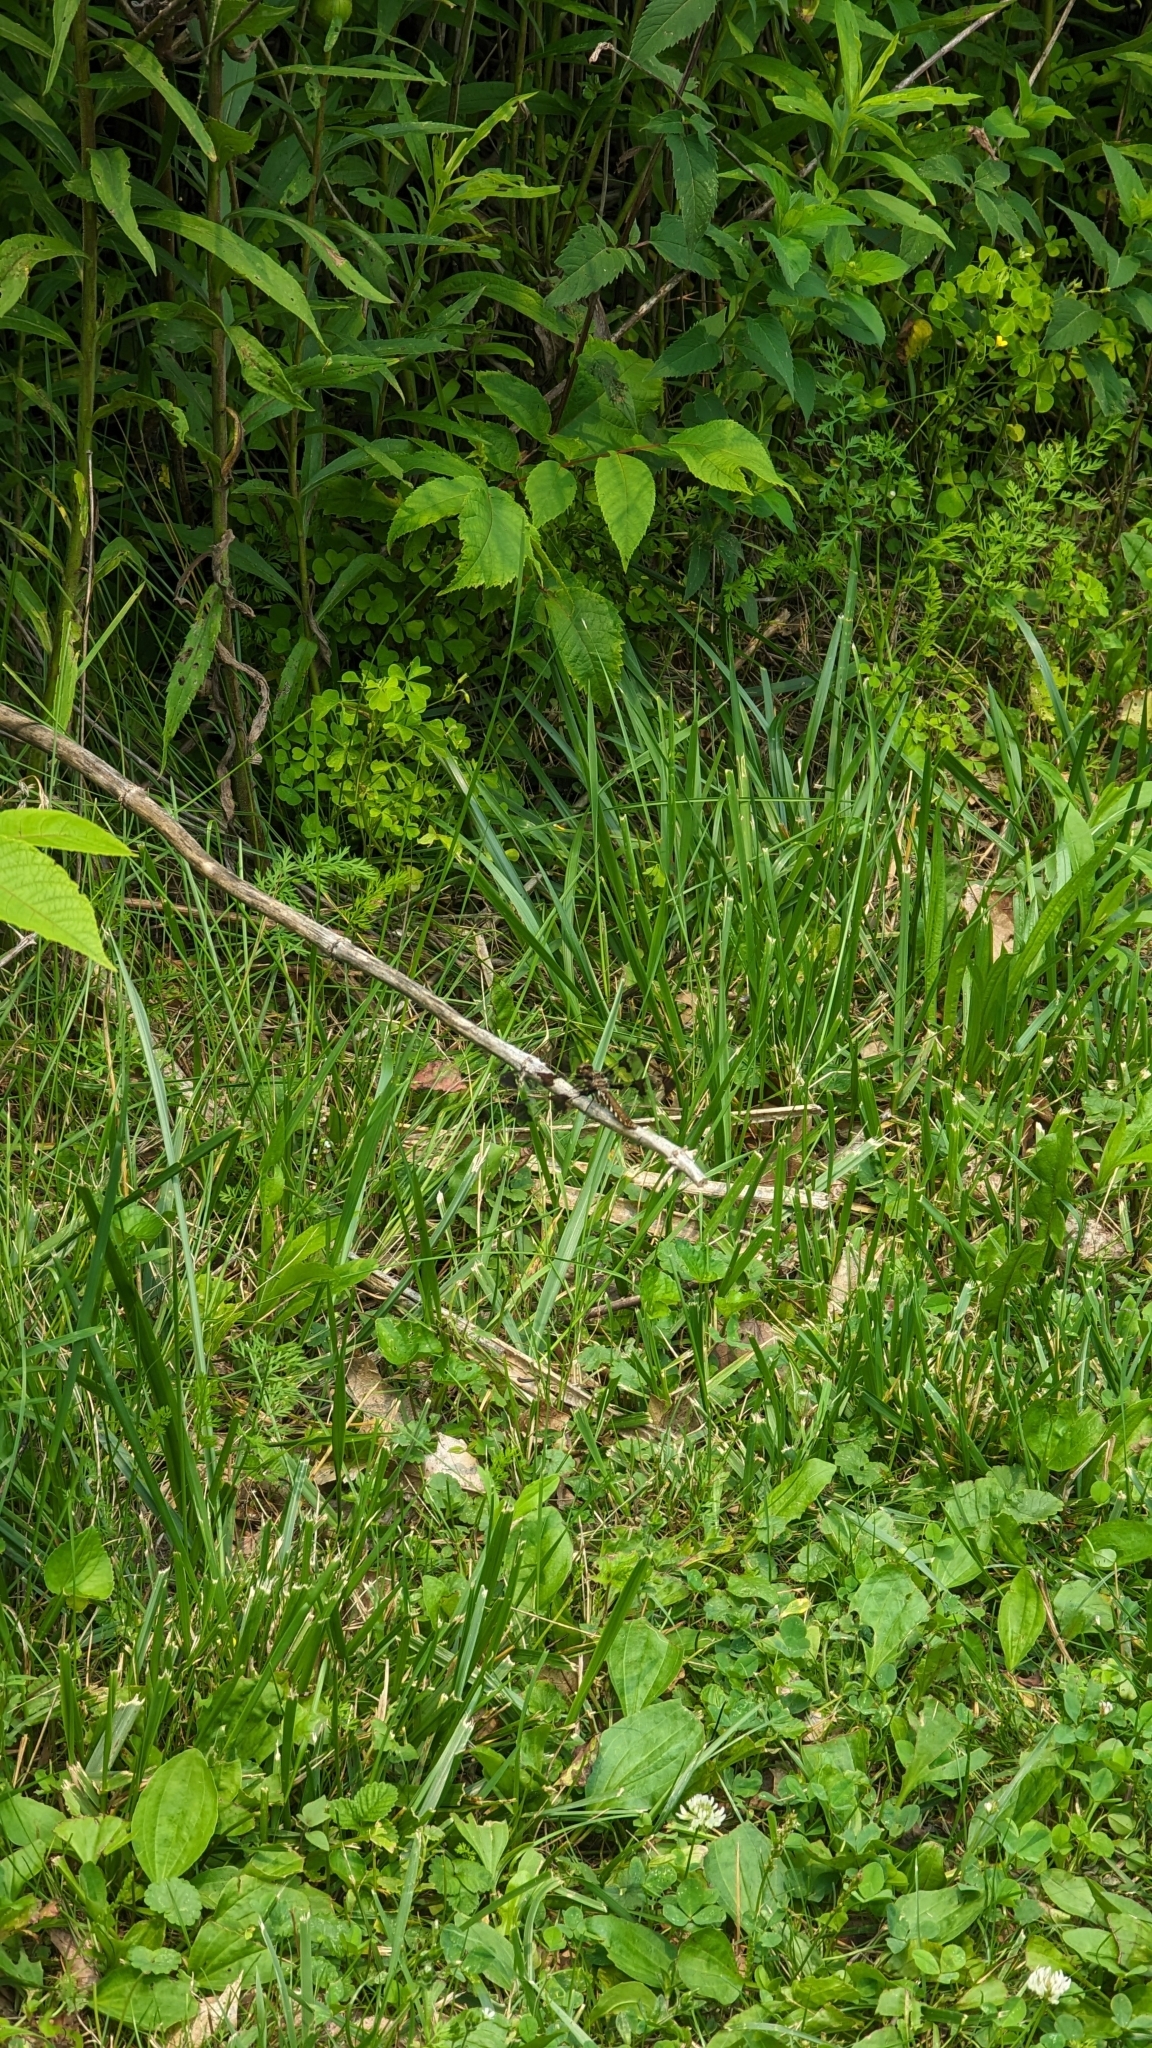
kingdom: Animalia
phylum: Arthropoda
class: Insecta
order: Odonata
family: Libellulidae
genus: Plathemis
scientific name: Plathemis lydia
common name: Common whitetail
